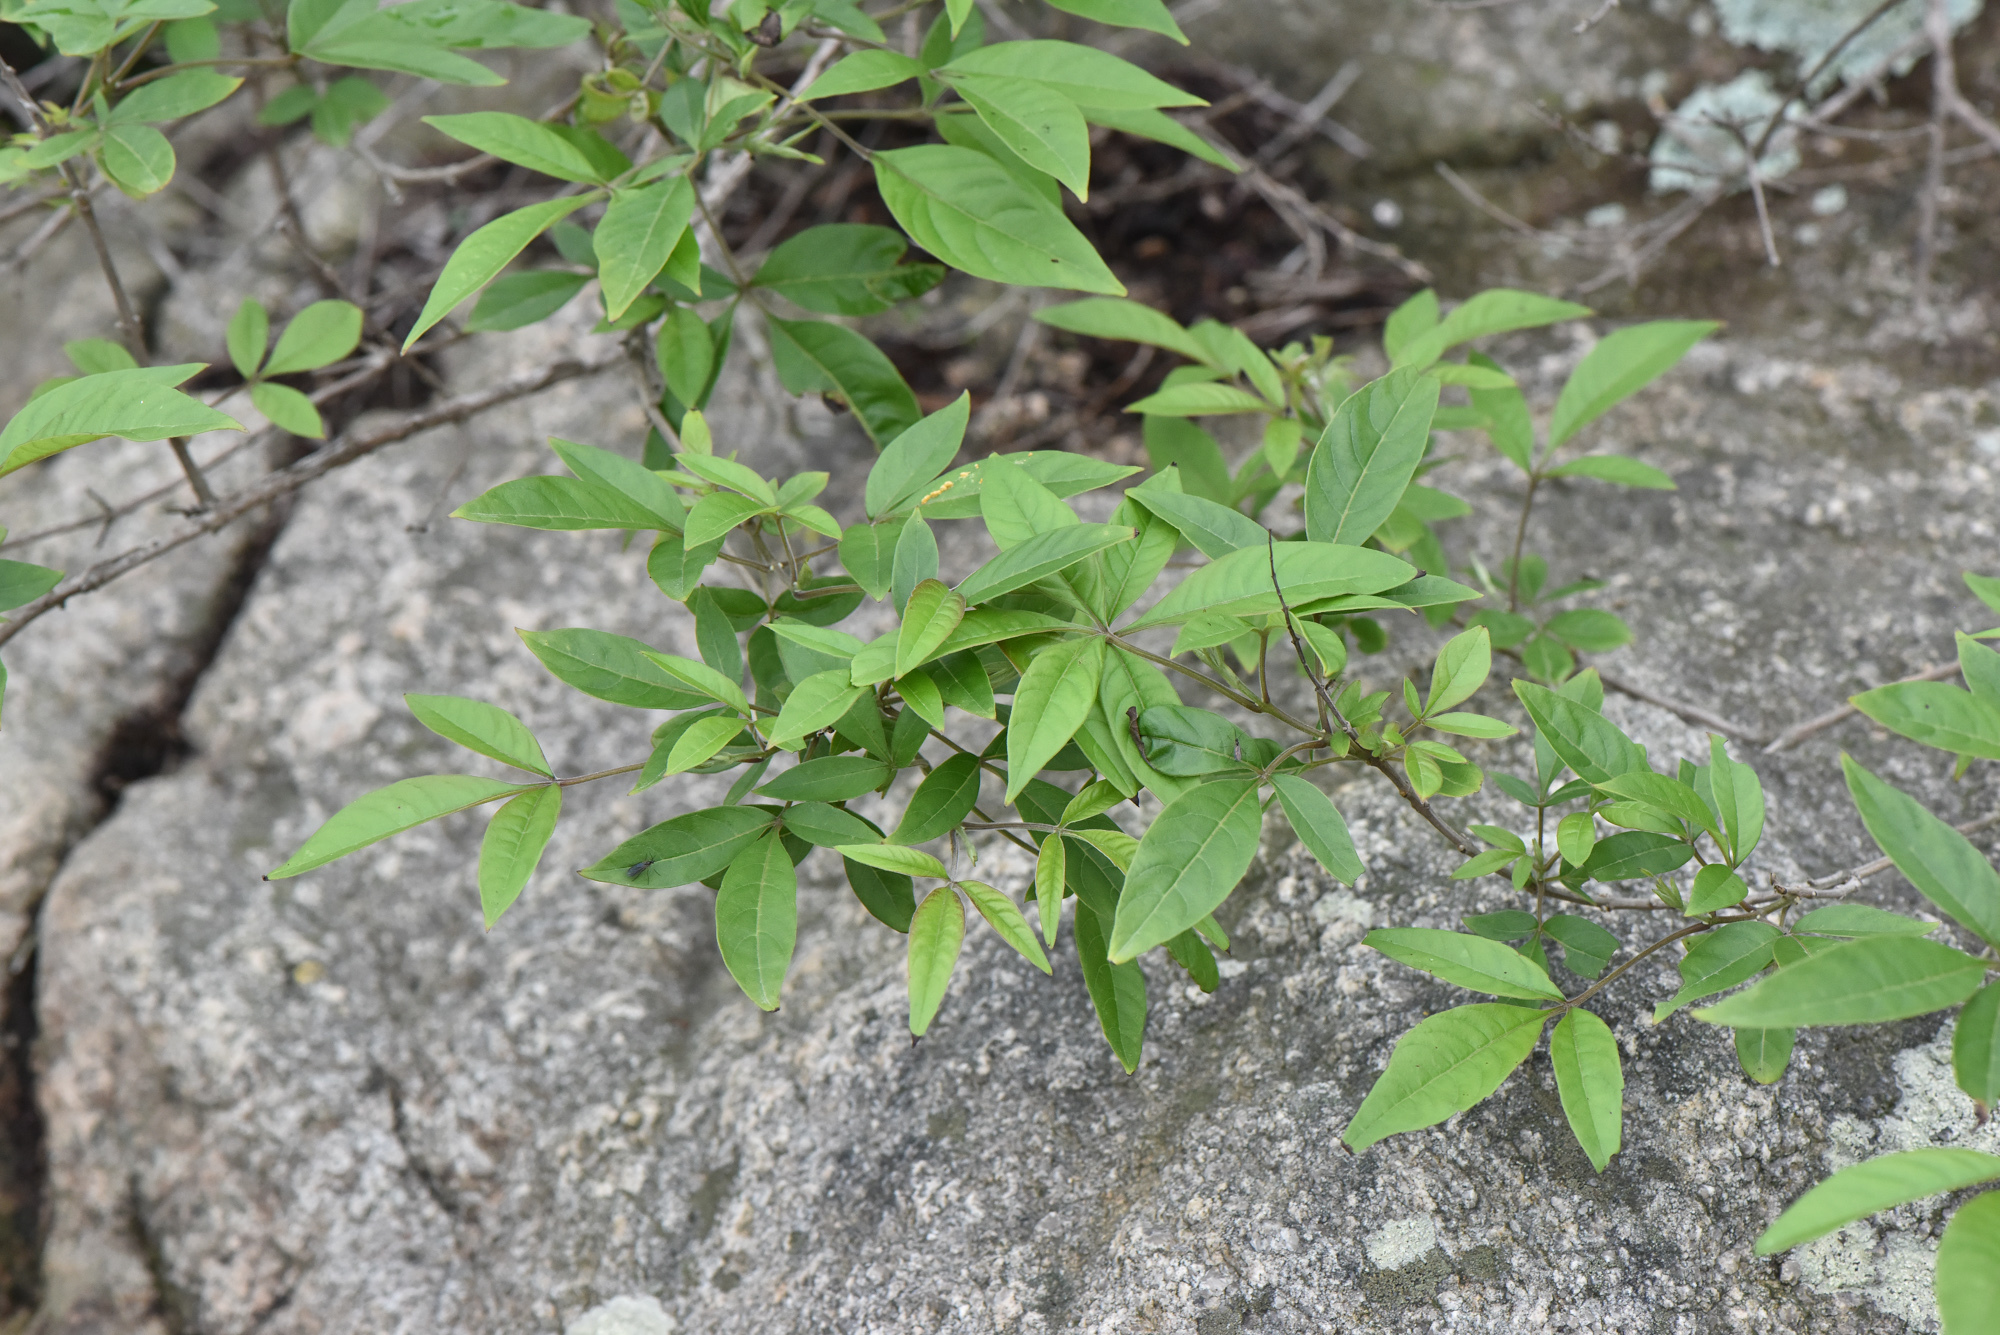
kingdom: Plantae
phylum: Tracheophyta
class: Magnoliopsida
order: Lamiales
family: Lamiaceae
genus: Vitex
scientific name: Vitex negundo
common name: Chinese chastetree
